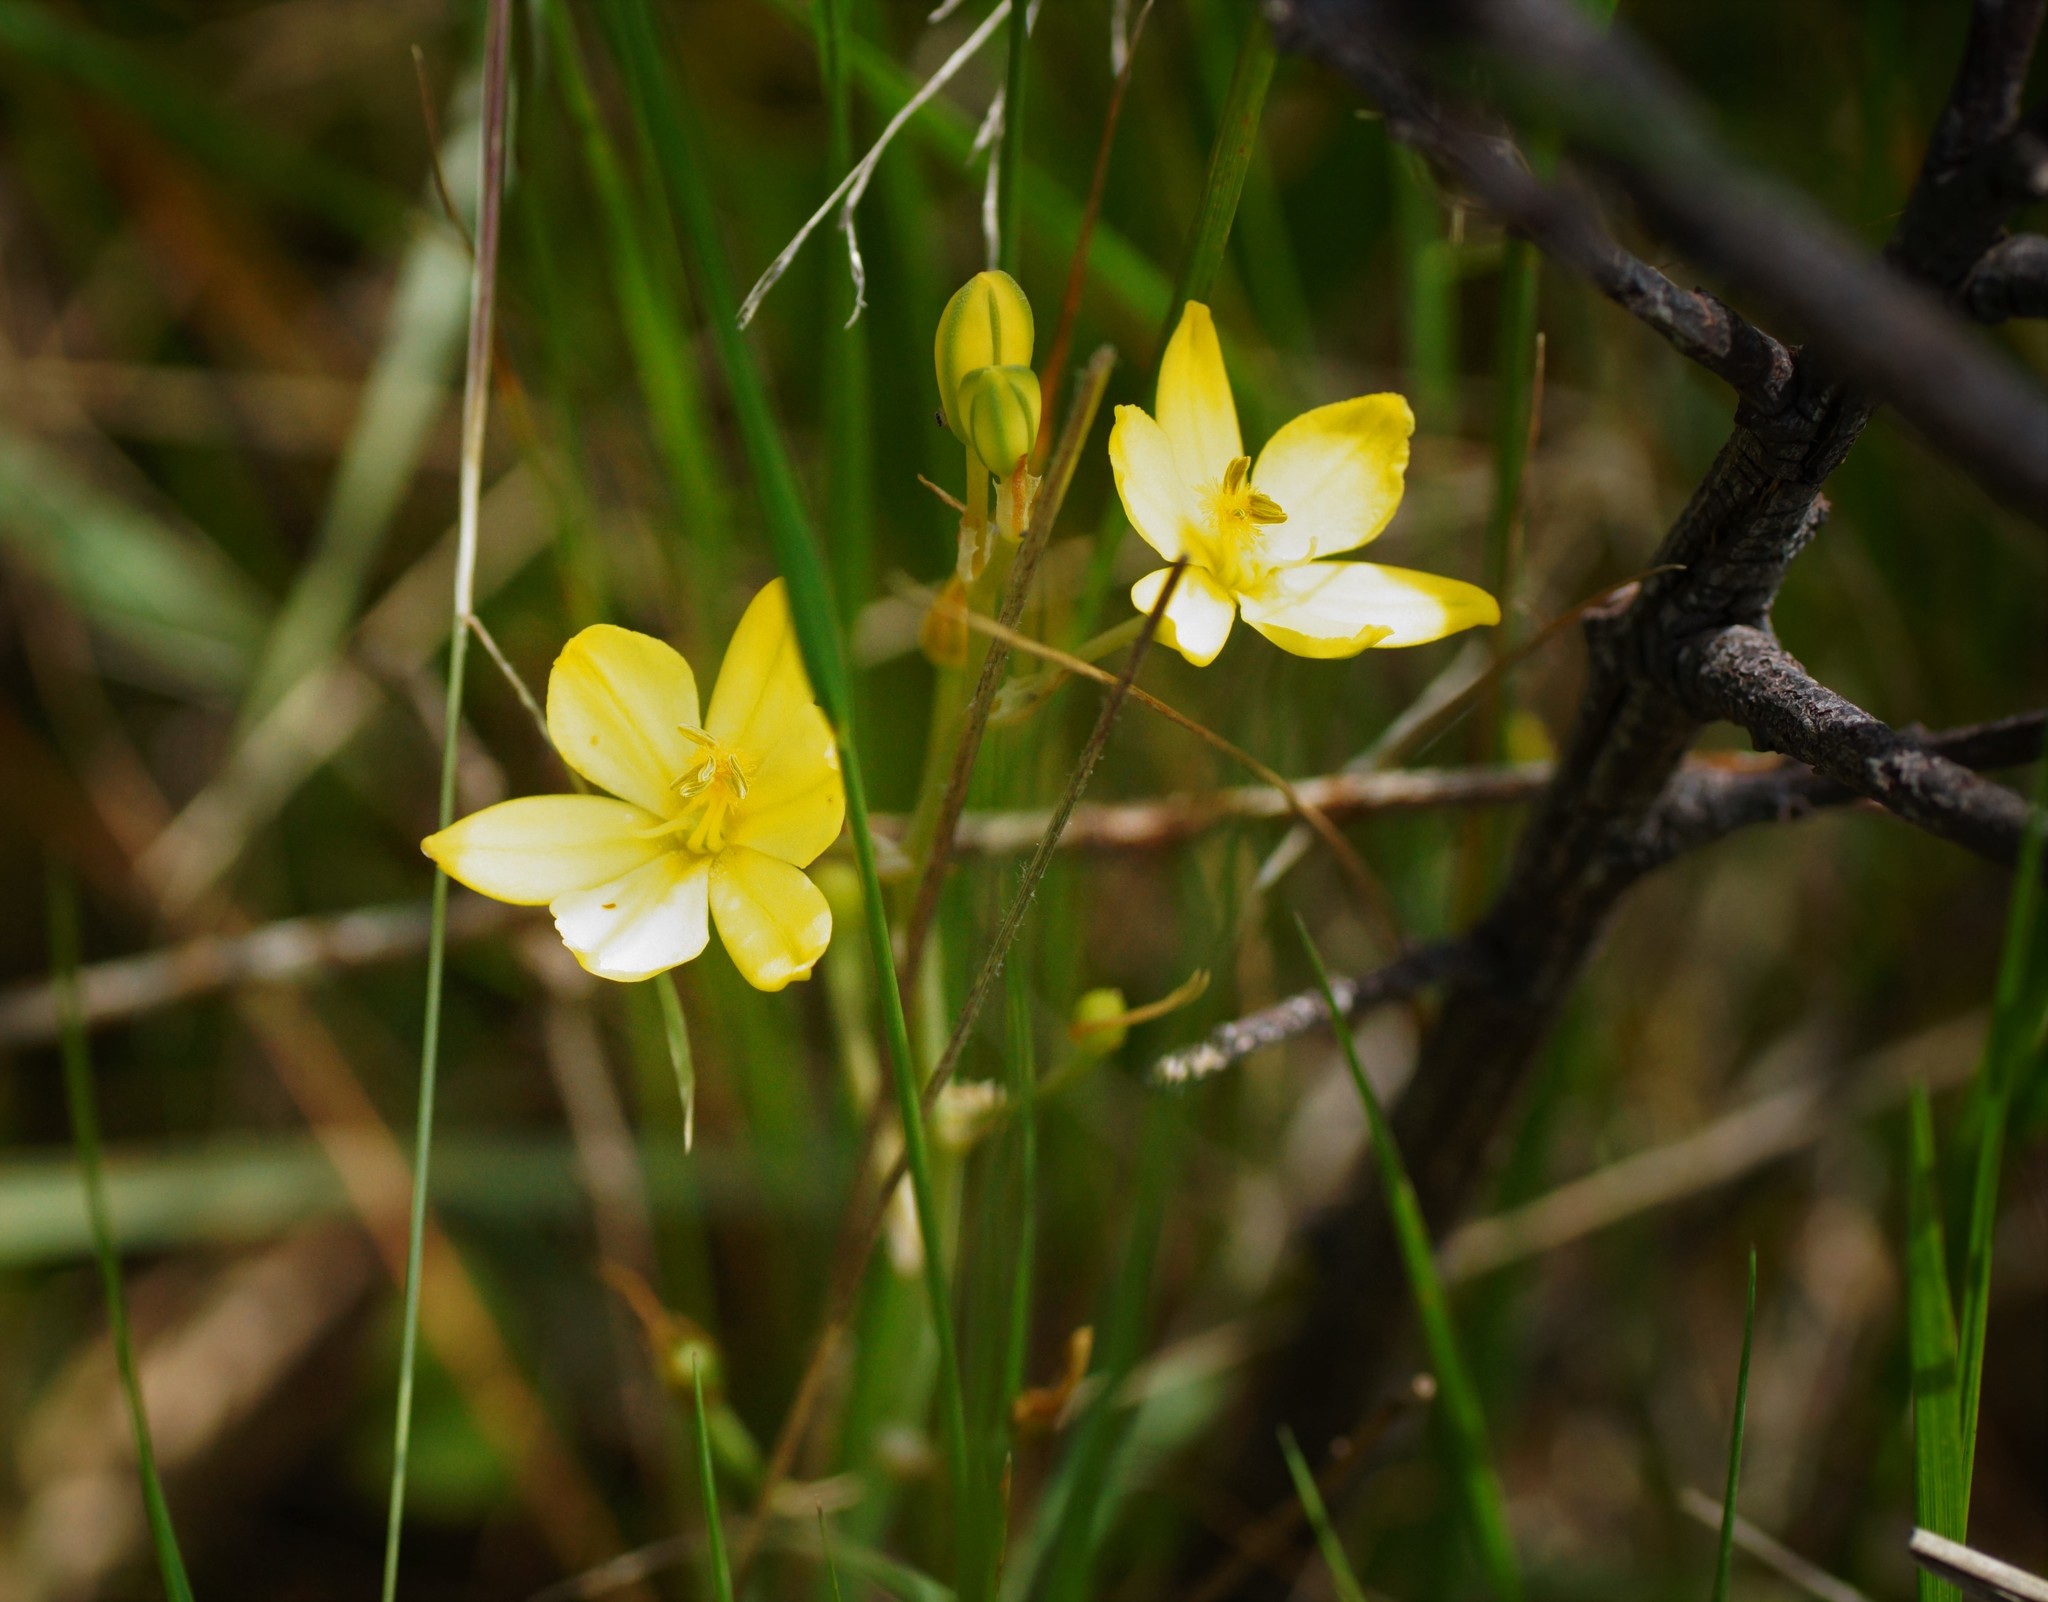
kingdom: Plantae
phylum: Tracheophyta
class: Liliopsida
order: Asparagales
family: Asphodelaceae
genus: Bulbine
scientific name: Bulbine bulbosa
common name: Golden-lily
